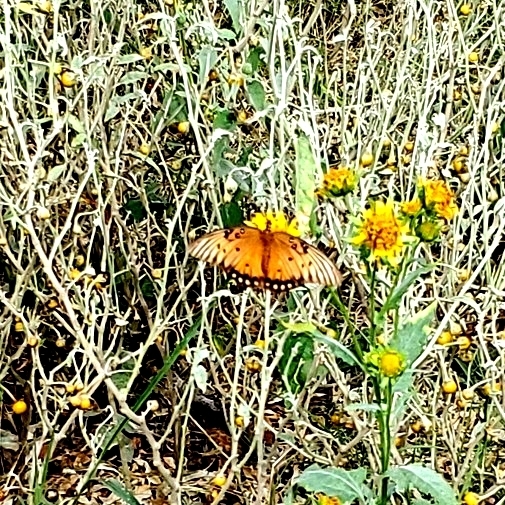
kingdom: Animalia
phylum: Arthropoda
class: Insecta
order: Lepidoptera
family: Nymphalidae
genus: Dione
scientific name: Dione vanillae
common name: Gulf fritillary
